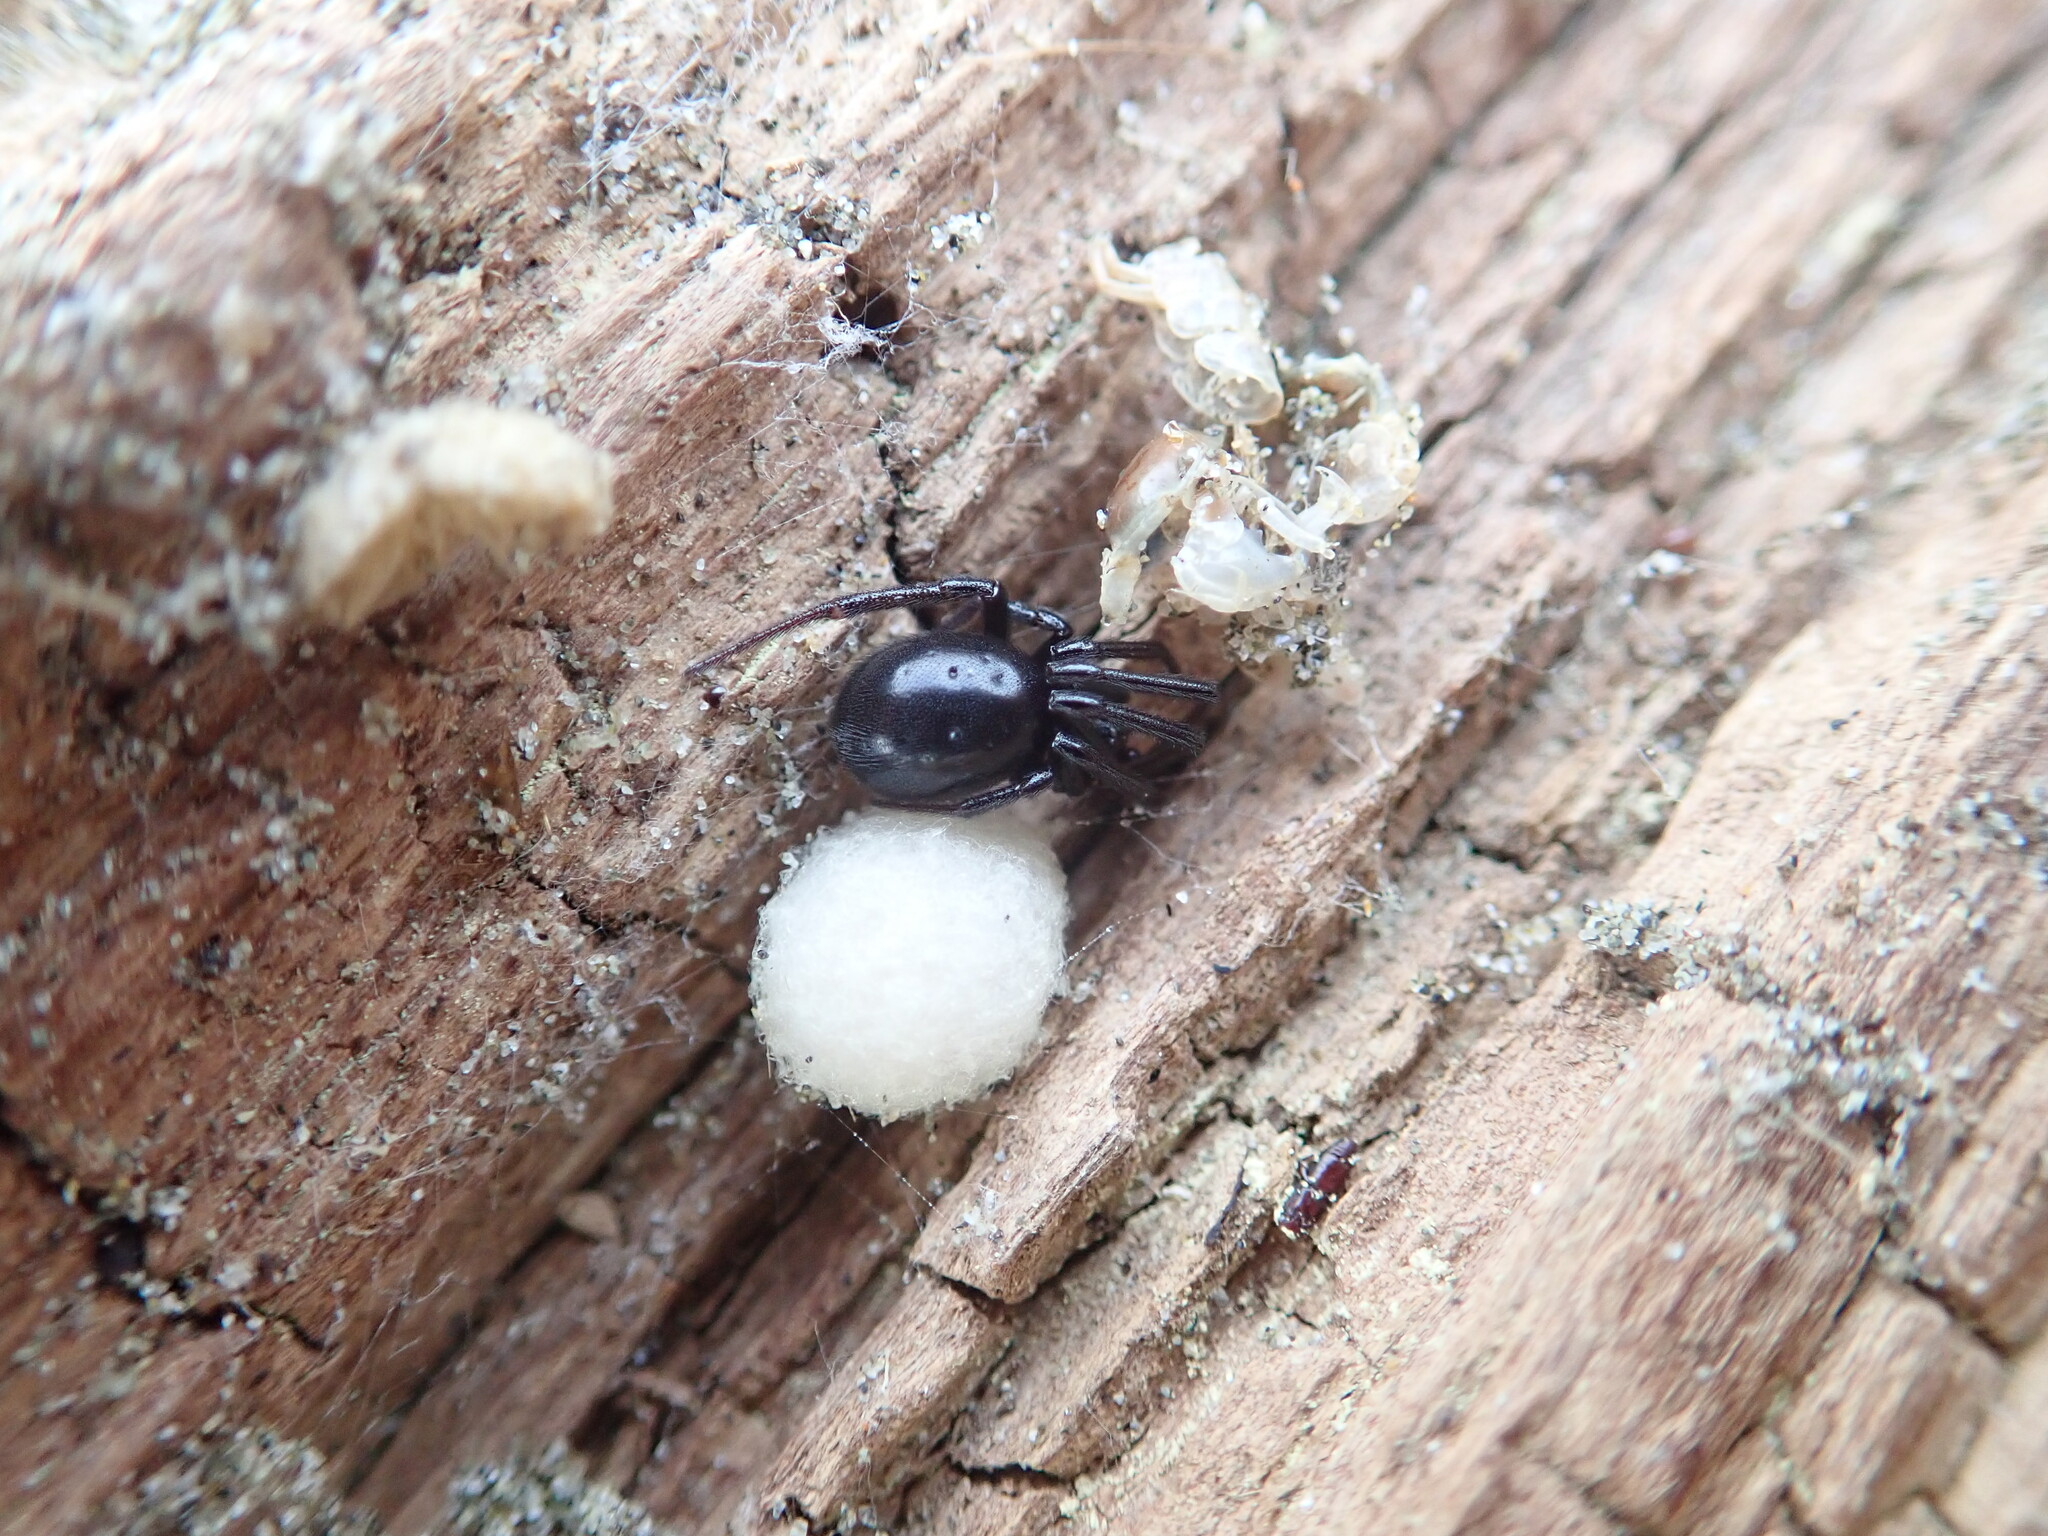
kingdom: Animalia
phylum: Arthropoda
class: Arachnida
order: Araneae
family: Theridiidae
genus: Steatoda
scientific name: Steatoda capensis
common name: Cobweb weaver
